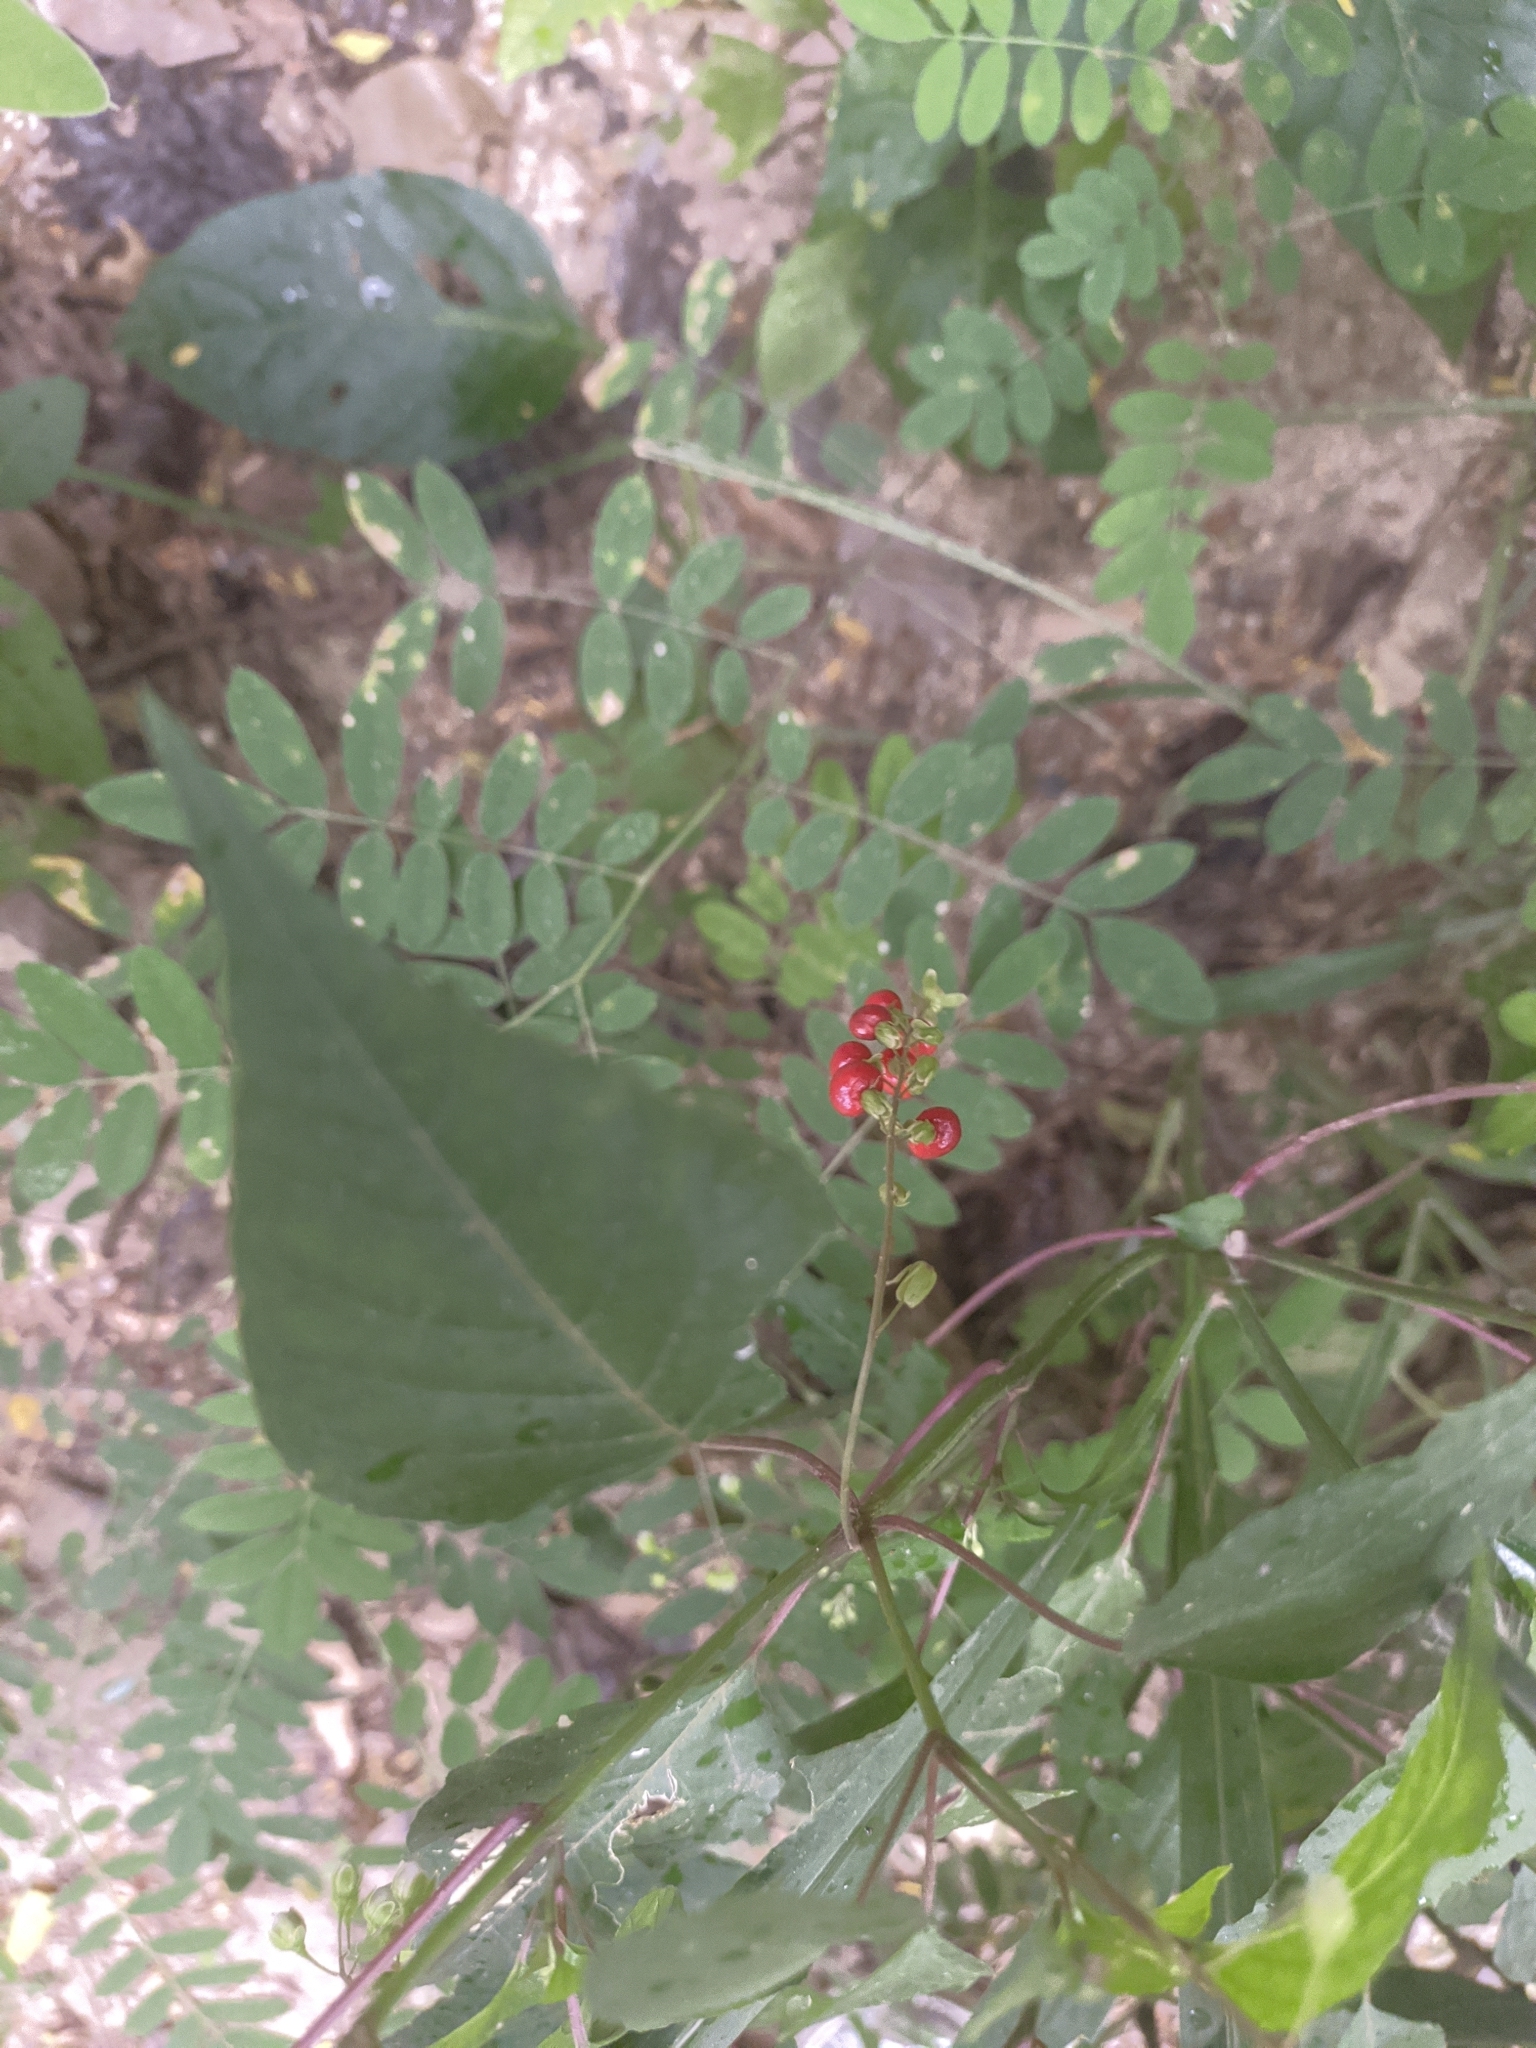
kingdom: Plantae
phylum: Tracheophyta
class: Magnoliopsida
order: Caryophyllales
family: Phytolaccaceae
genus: Rivina
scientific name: Rivina humilis
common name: Rougeplant
